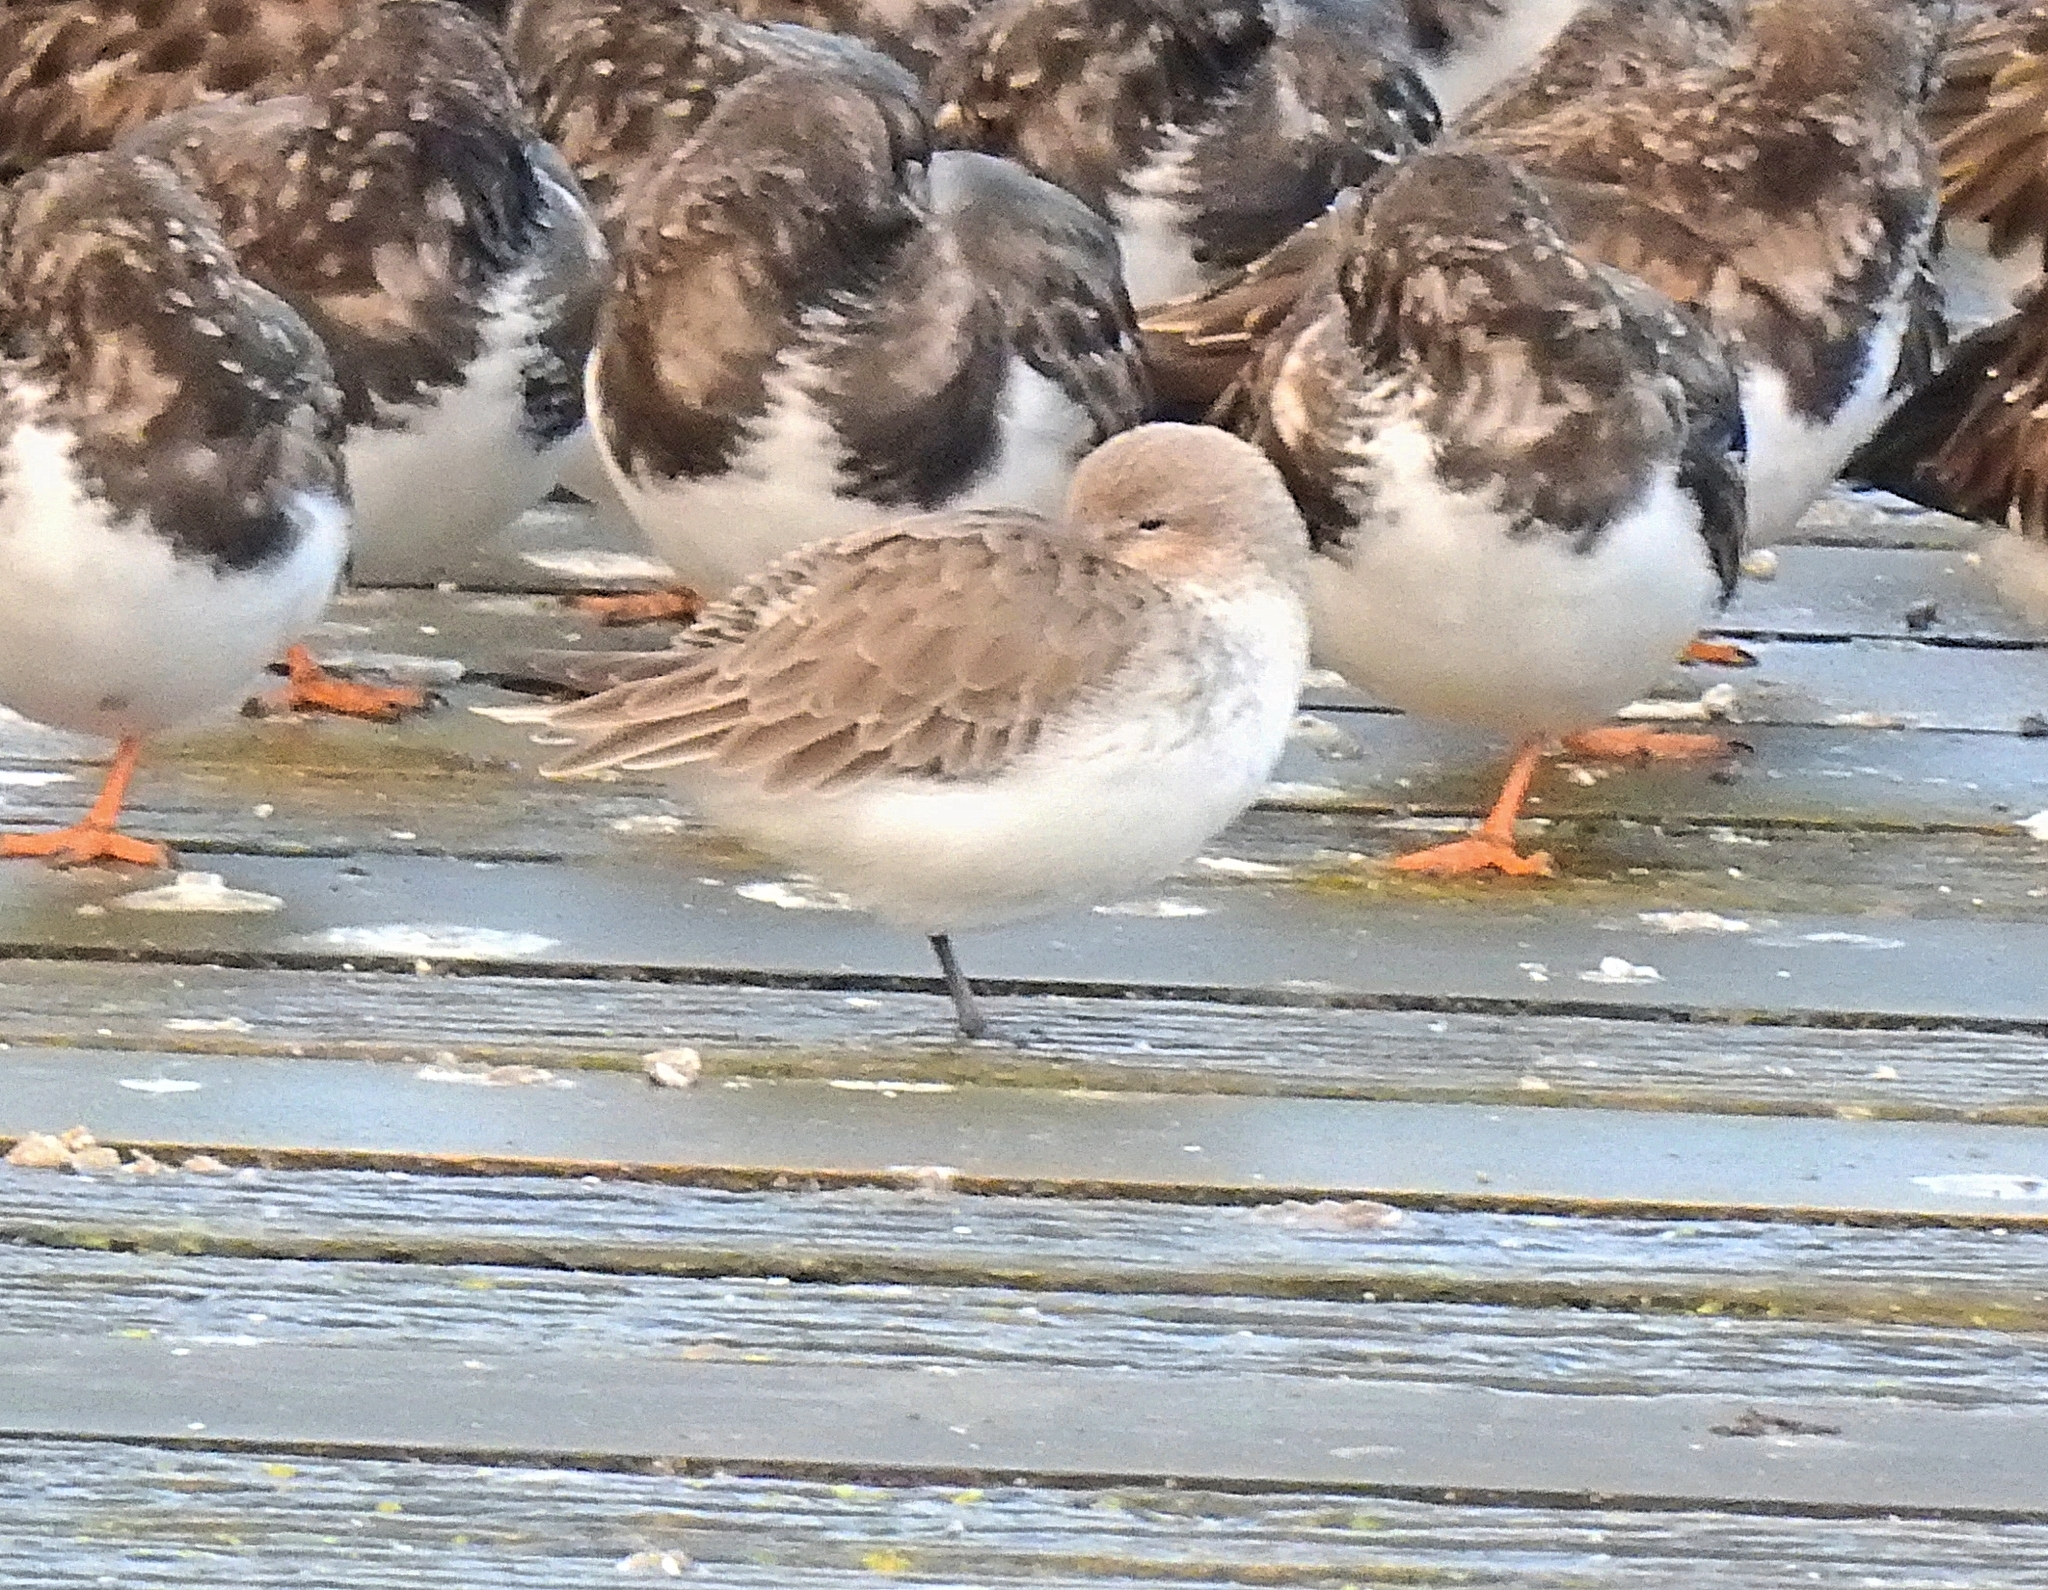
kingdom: Animalia
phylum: Chordata
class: Aves
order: Charadriiformes
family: Scolopacidae
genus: Calidris
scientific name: Calidris alpina
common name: Dunlin
